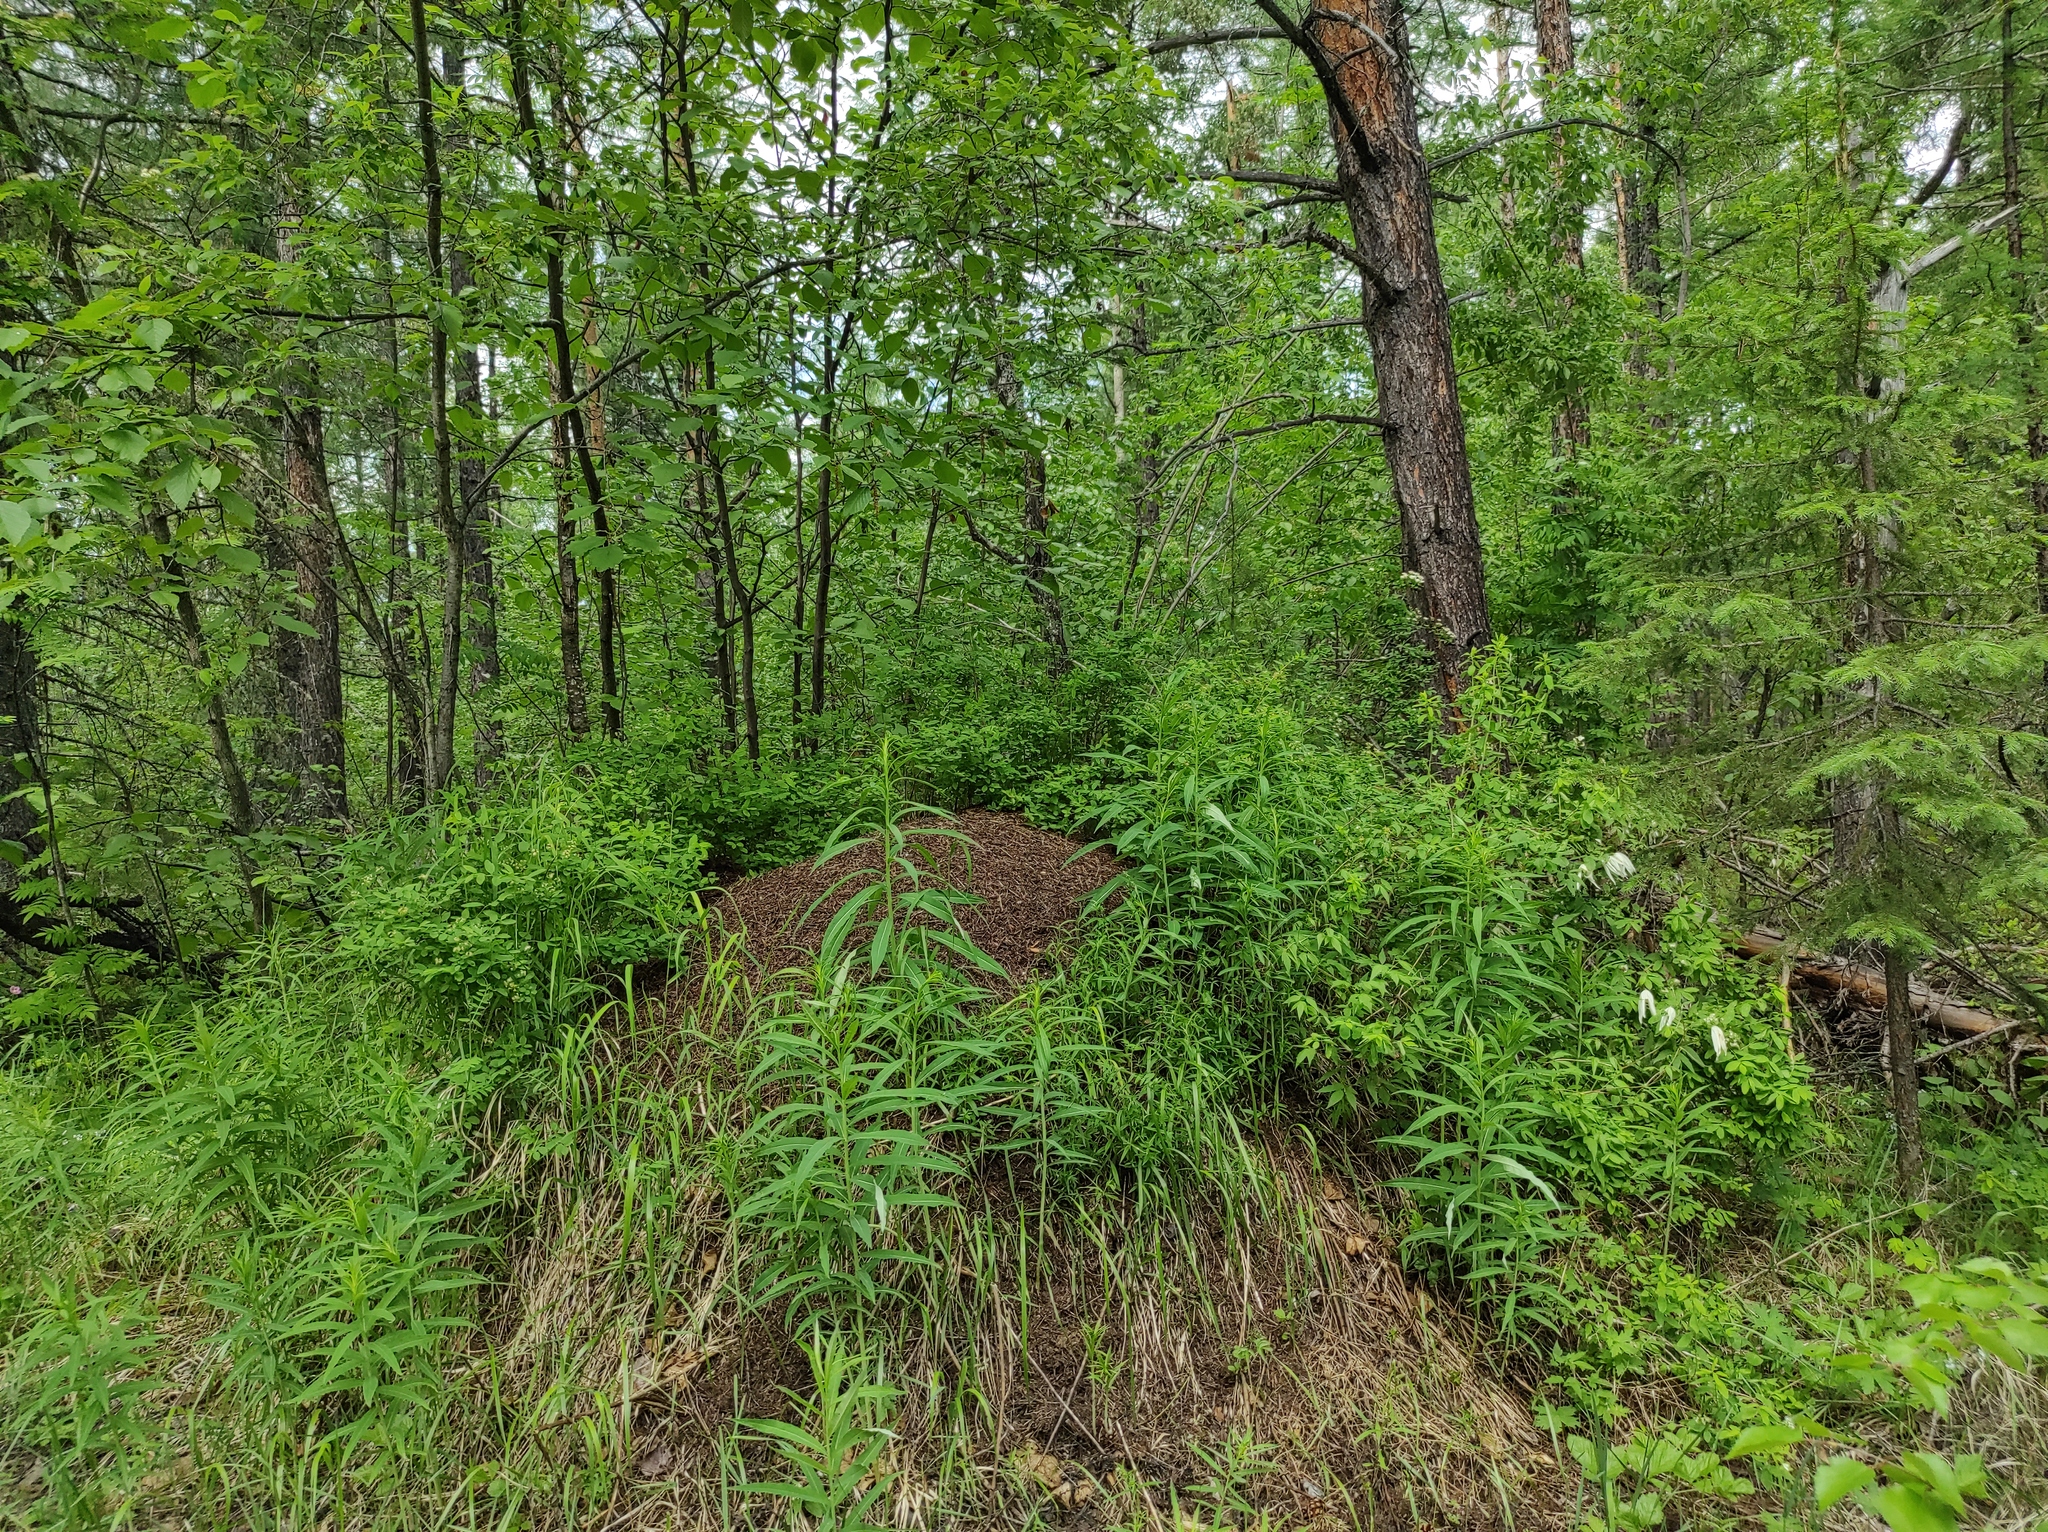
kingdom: Plantae
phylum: Tracheophyta
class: Pinopsida
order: Pinales
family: Pinaceae
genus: Pinus
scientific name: Pinus sylvestris
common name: Scots pine
